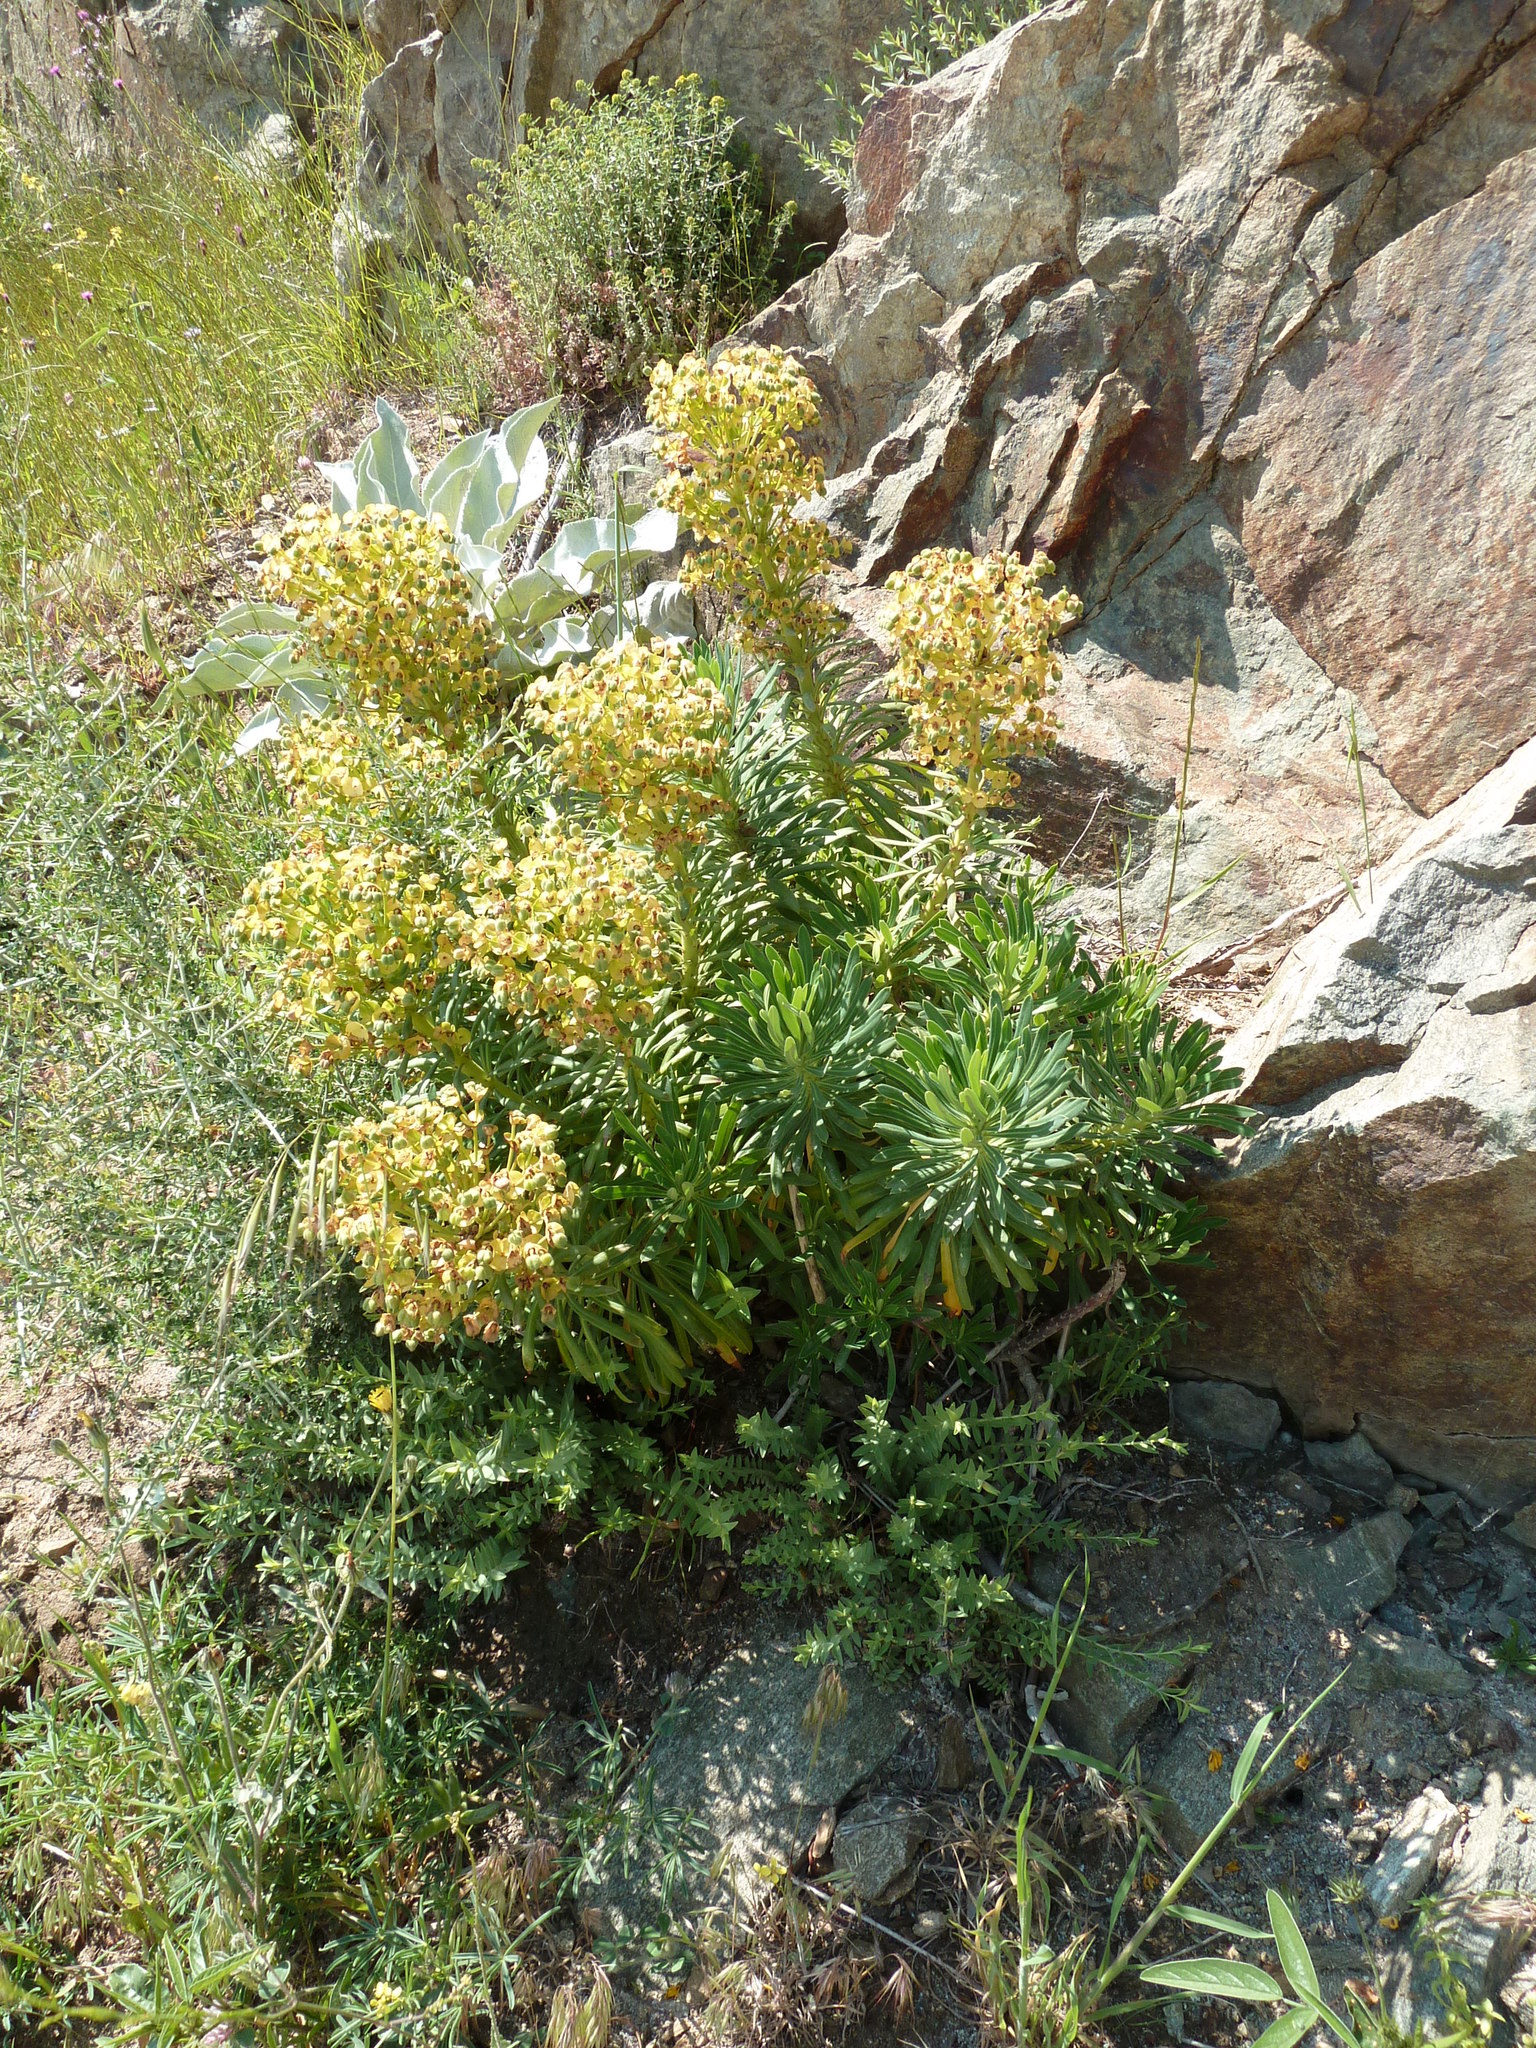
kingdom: Plantae
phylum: Tracheophyta
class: Magnoliopsida
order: Malpighiales
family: Euphorbiaceae
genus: Euphorbia
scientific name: Euphorbia characias
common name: Mediterranean spurge
